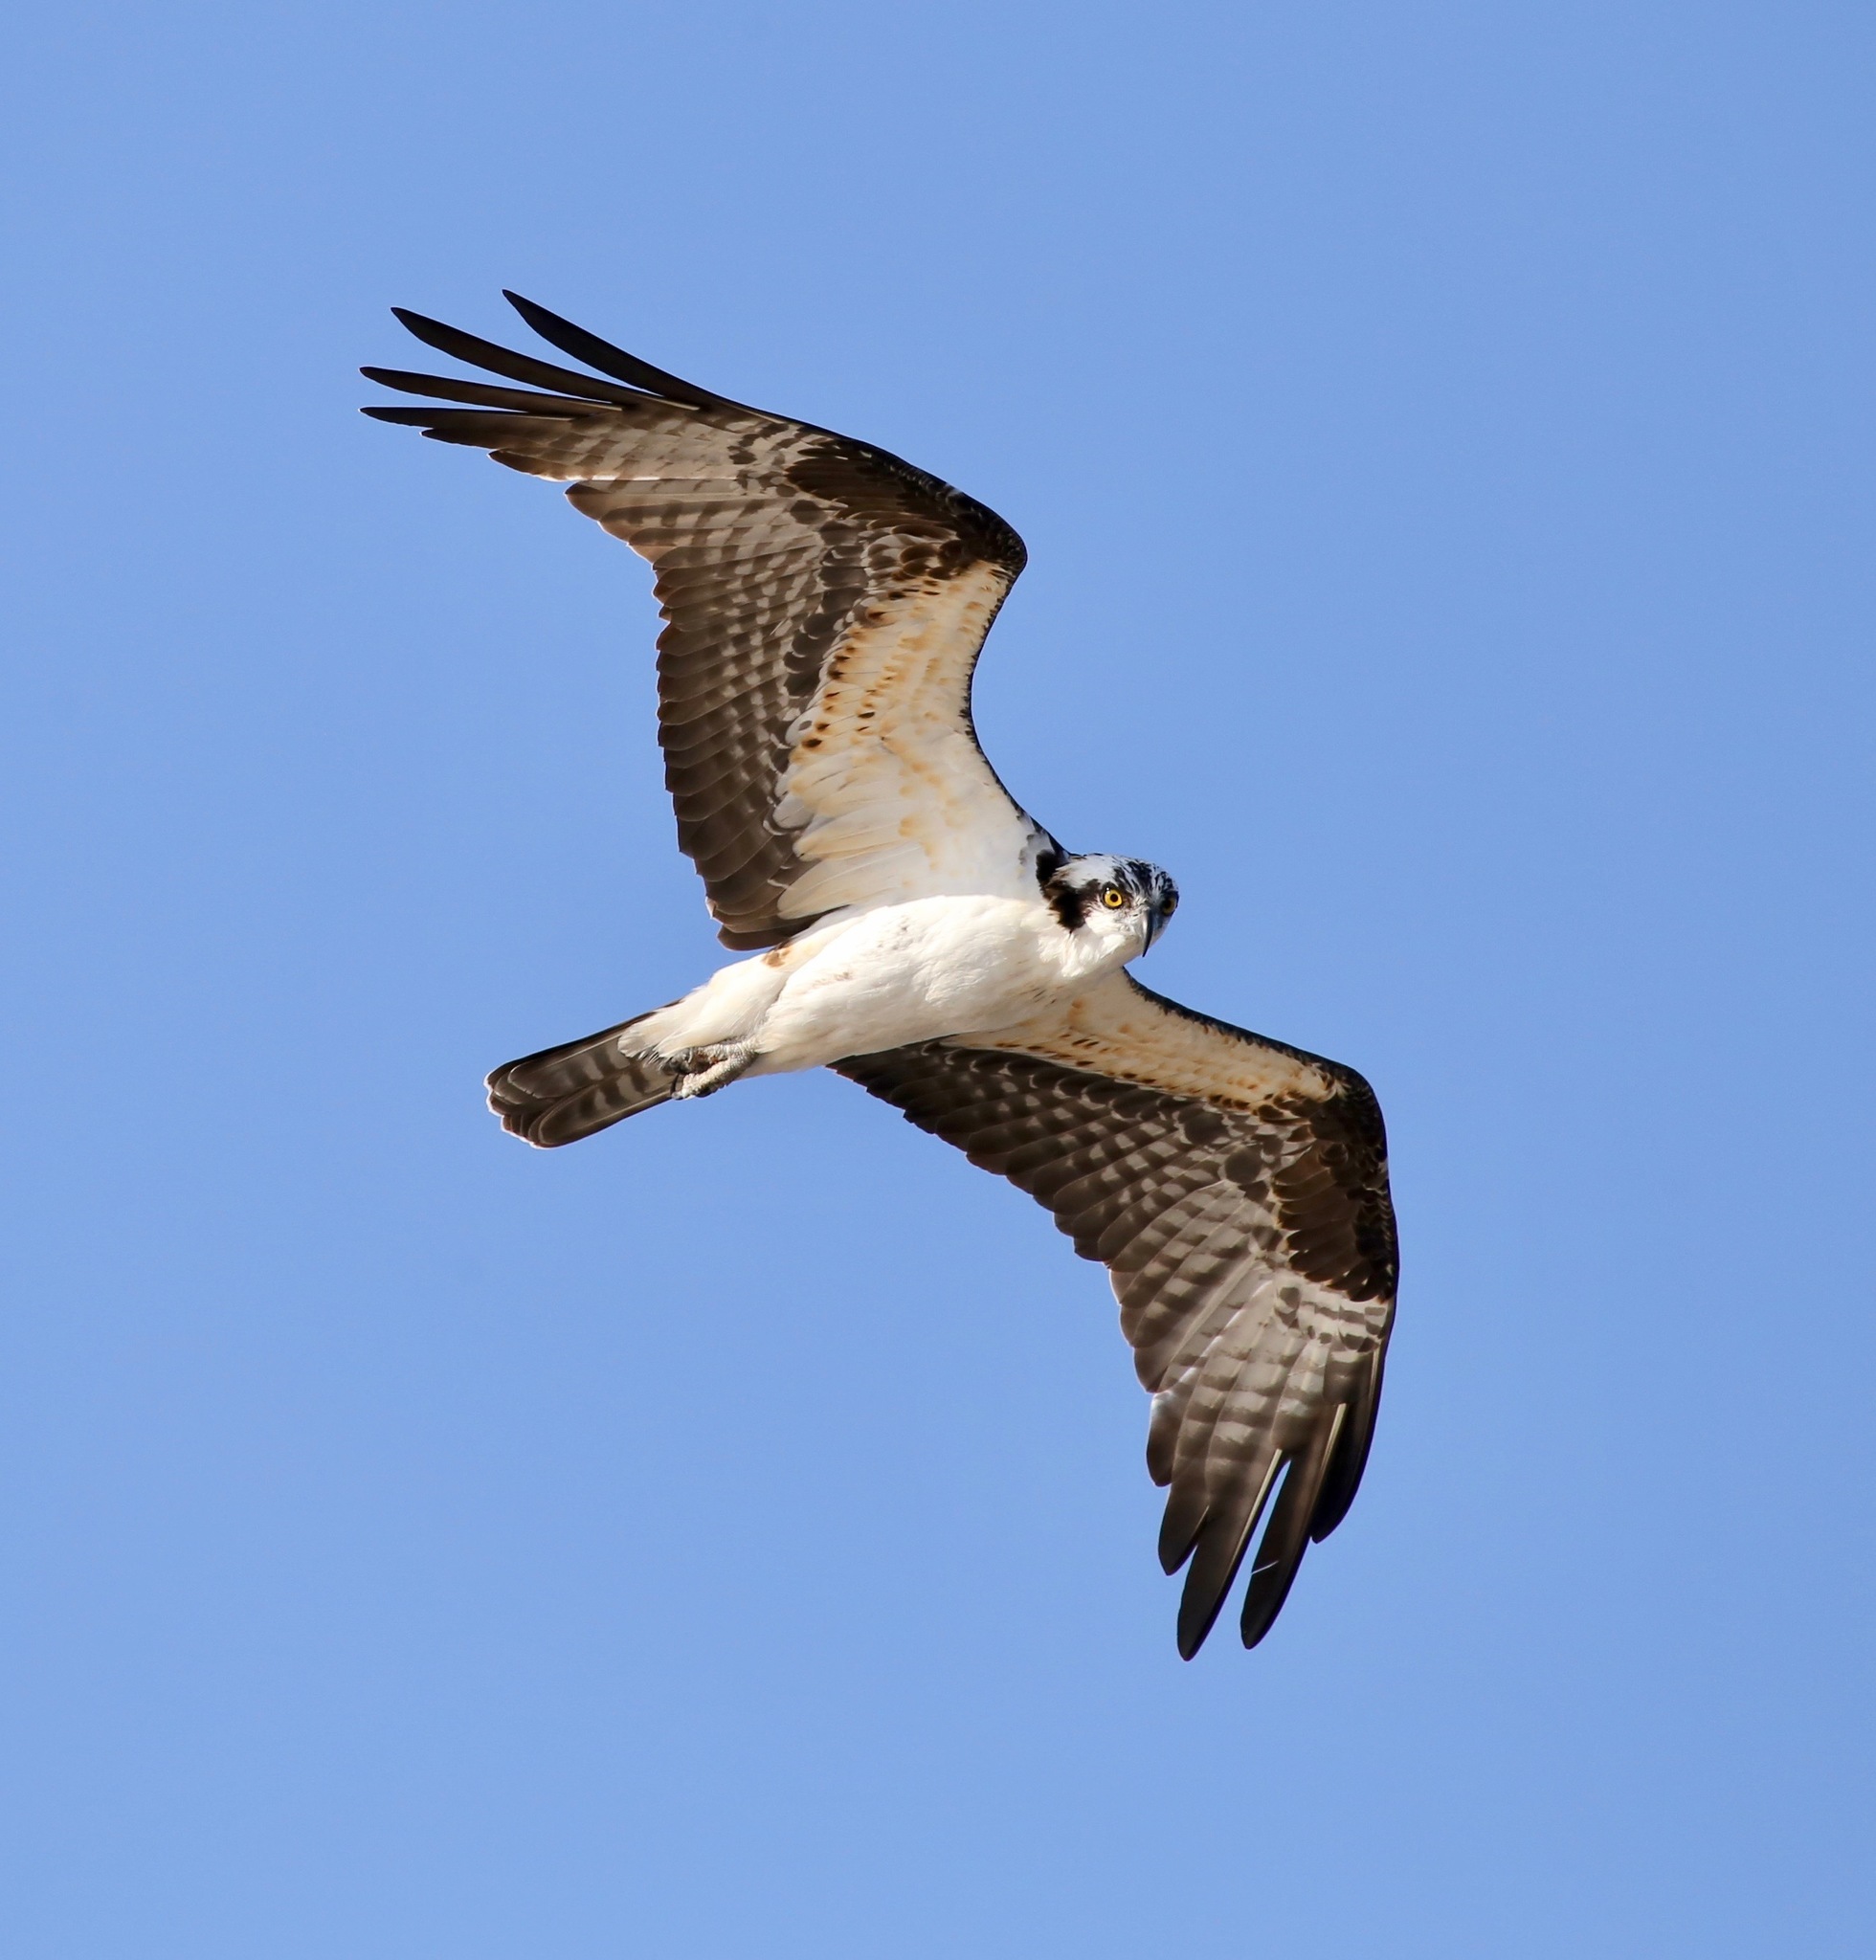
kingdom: Animalia
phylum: Chordata
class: Aves
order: Accipitriformes
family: Pandionidae
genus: Pandion
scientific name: Pandion haliaetus
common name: Osprey
